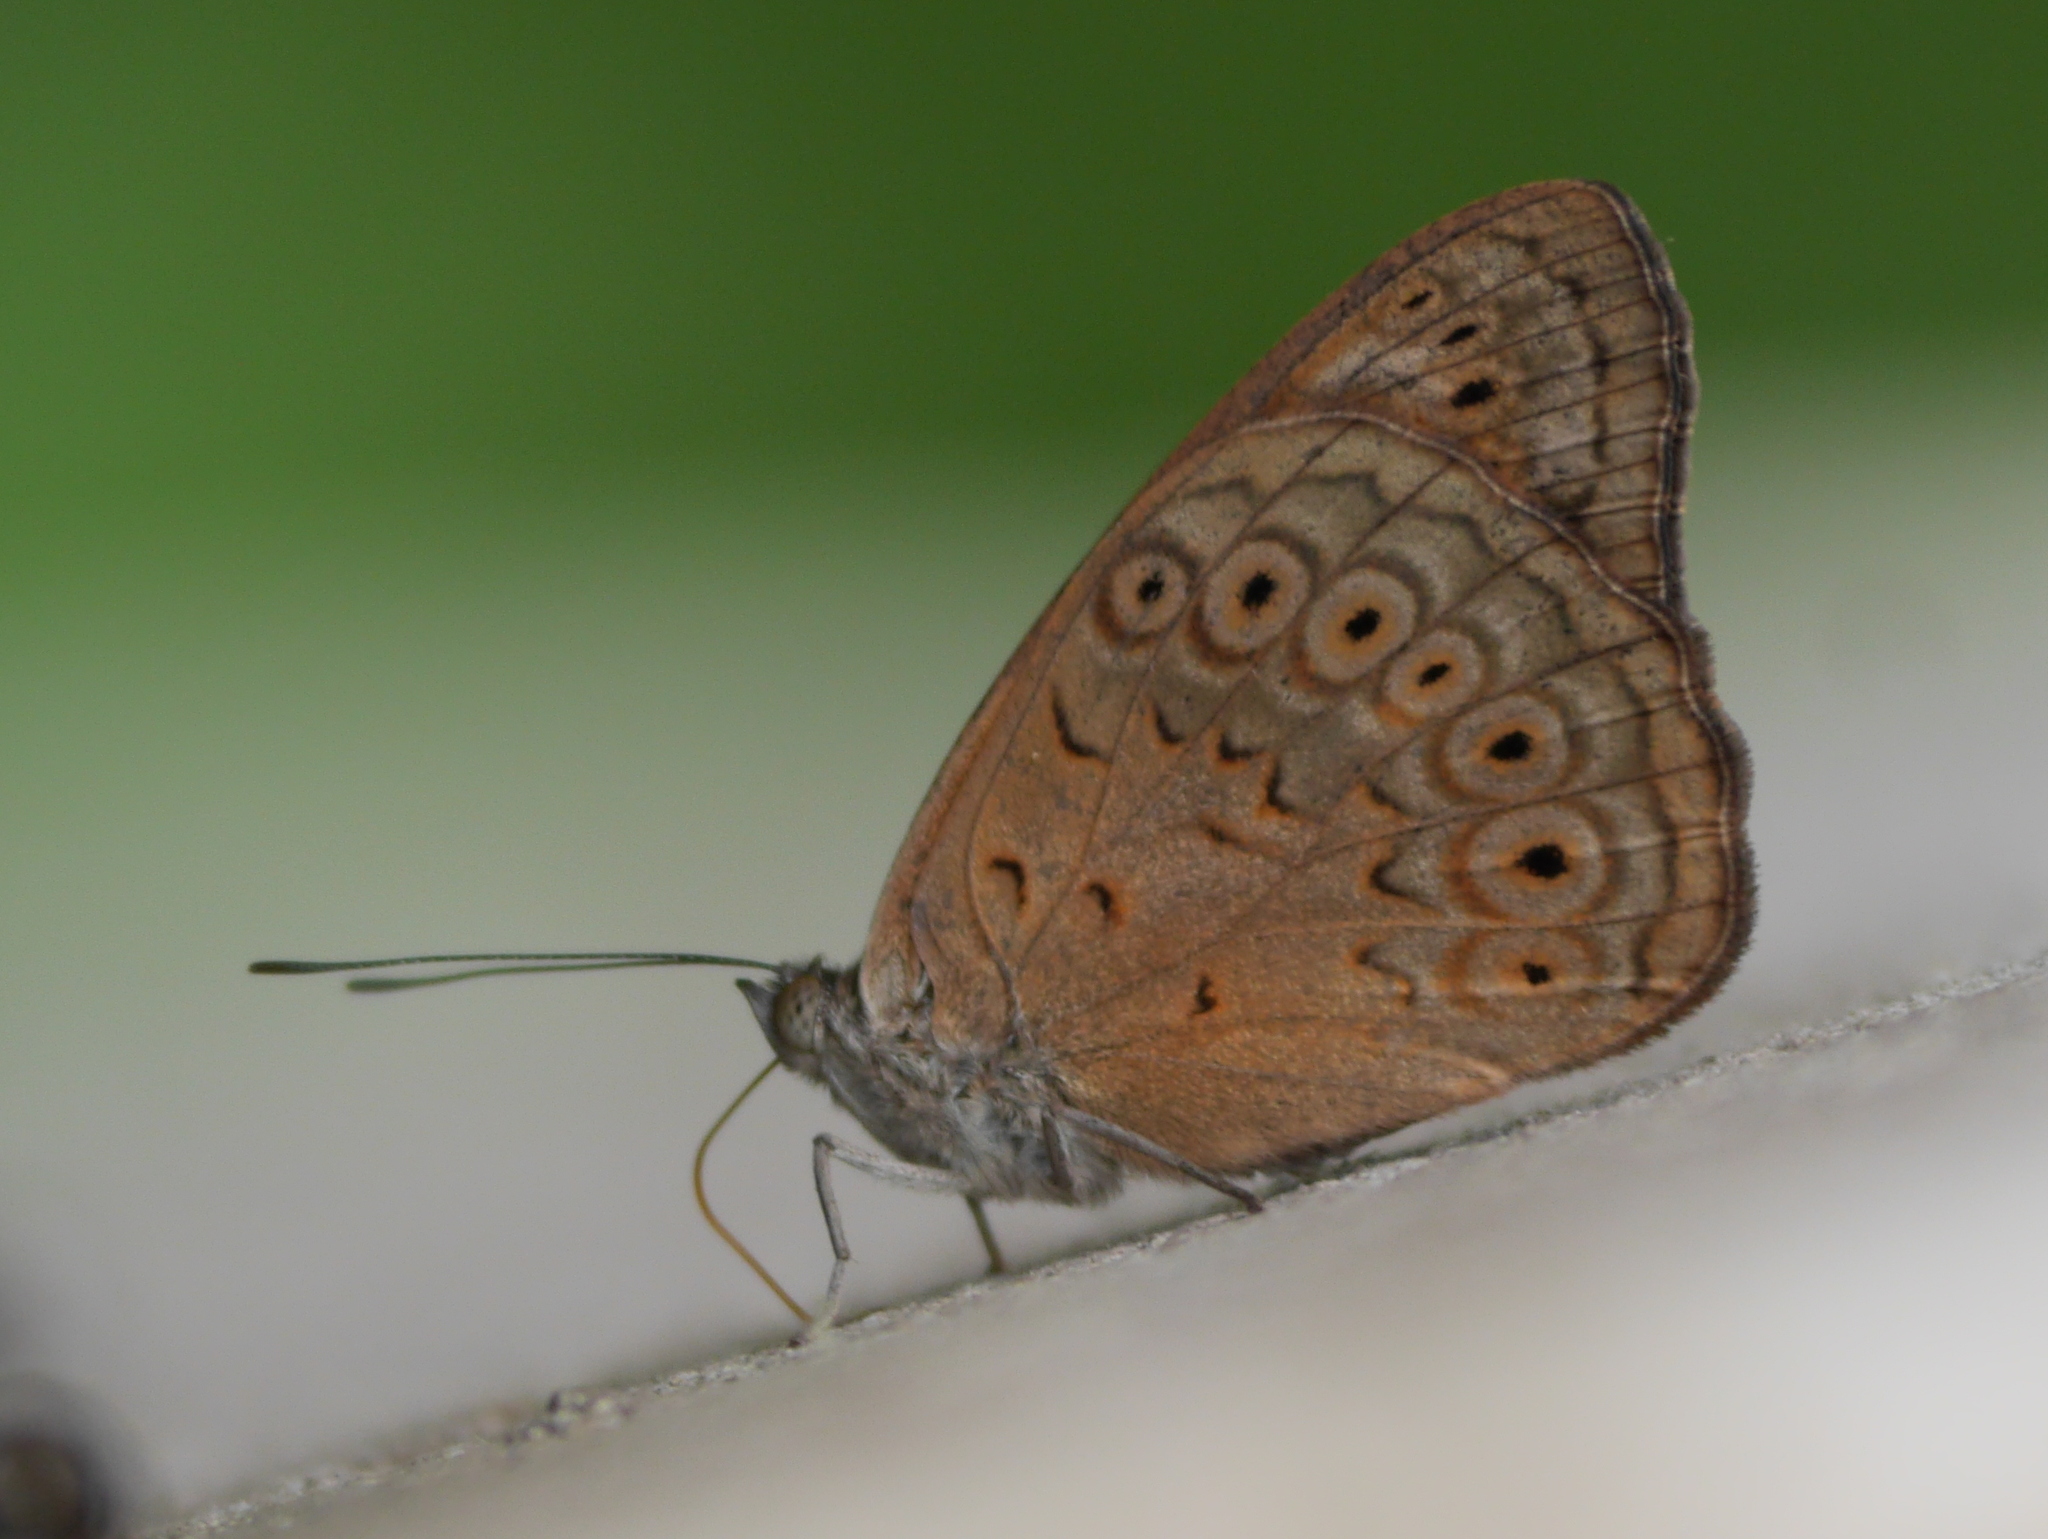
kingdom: Animalia
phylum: Arthropoda
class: Insecta
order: Lepidoptera
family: Nymphalidae
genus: Asterope
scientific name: Asterope occidentalium
